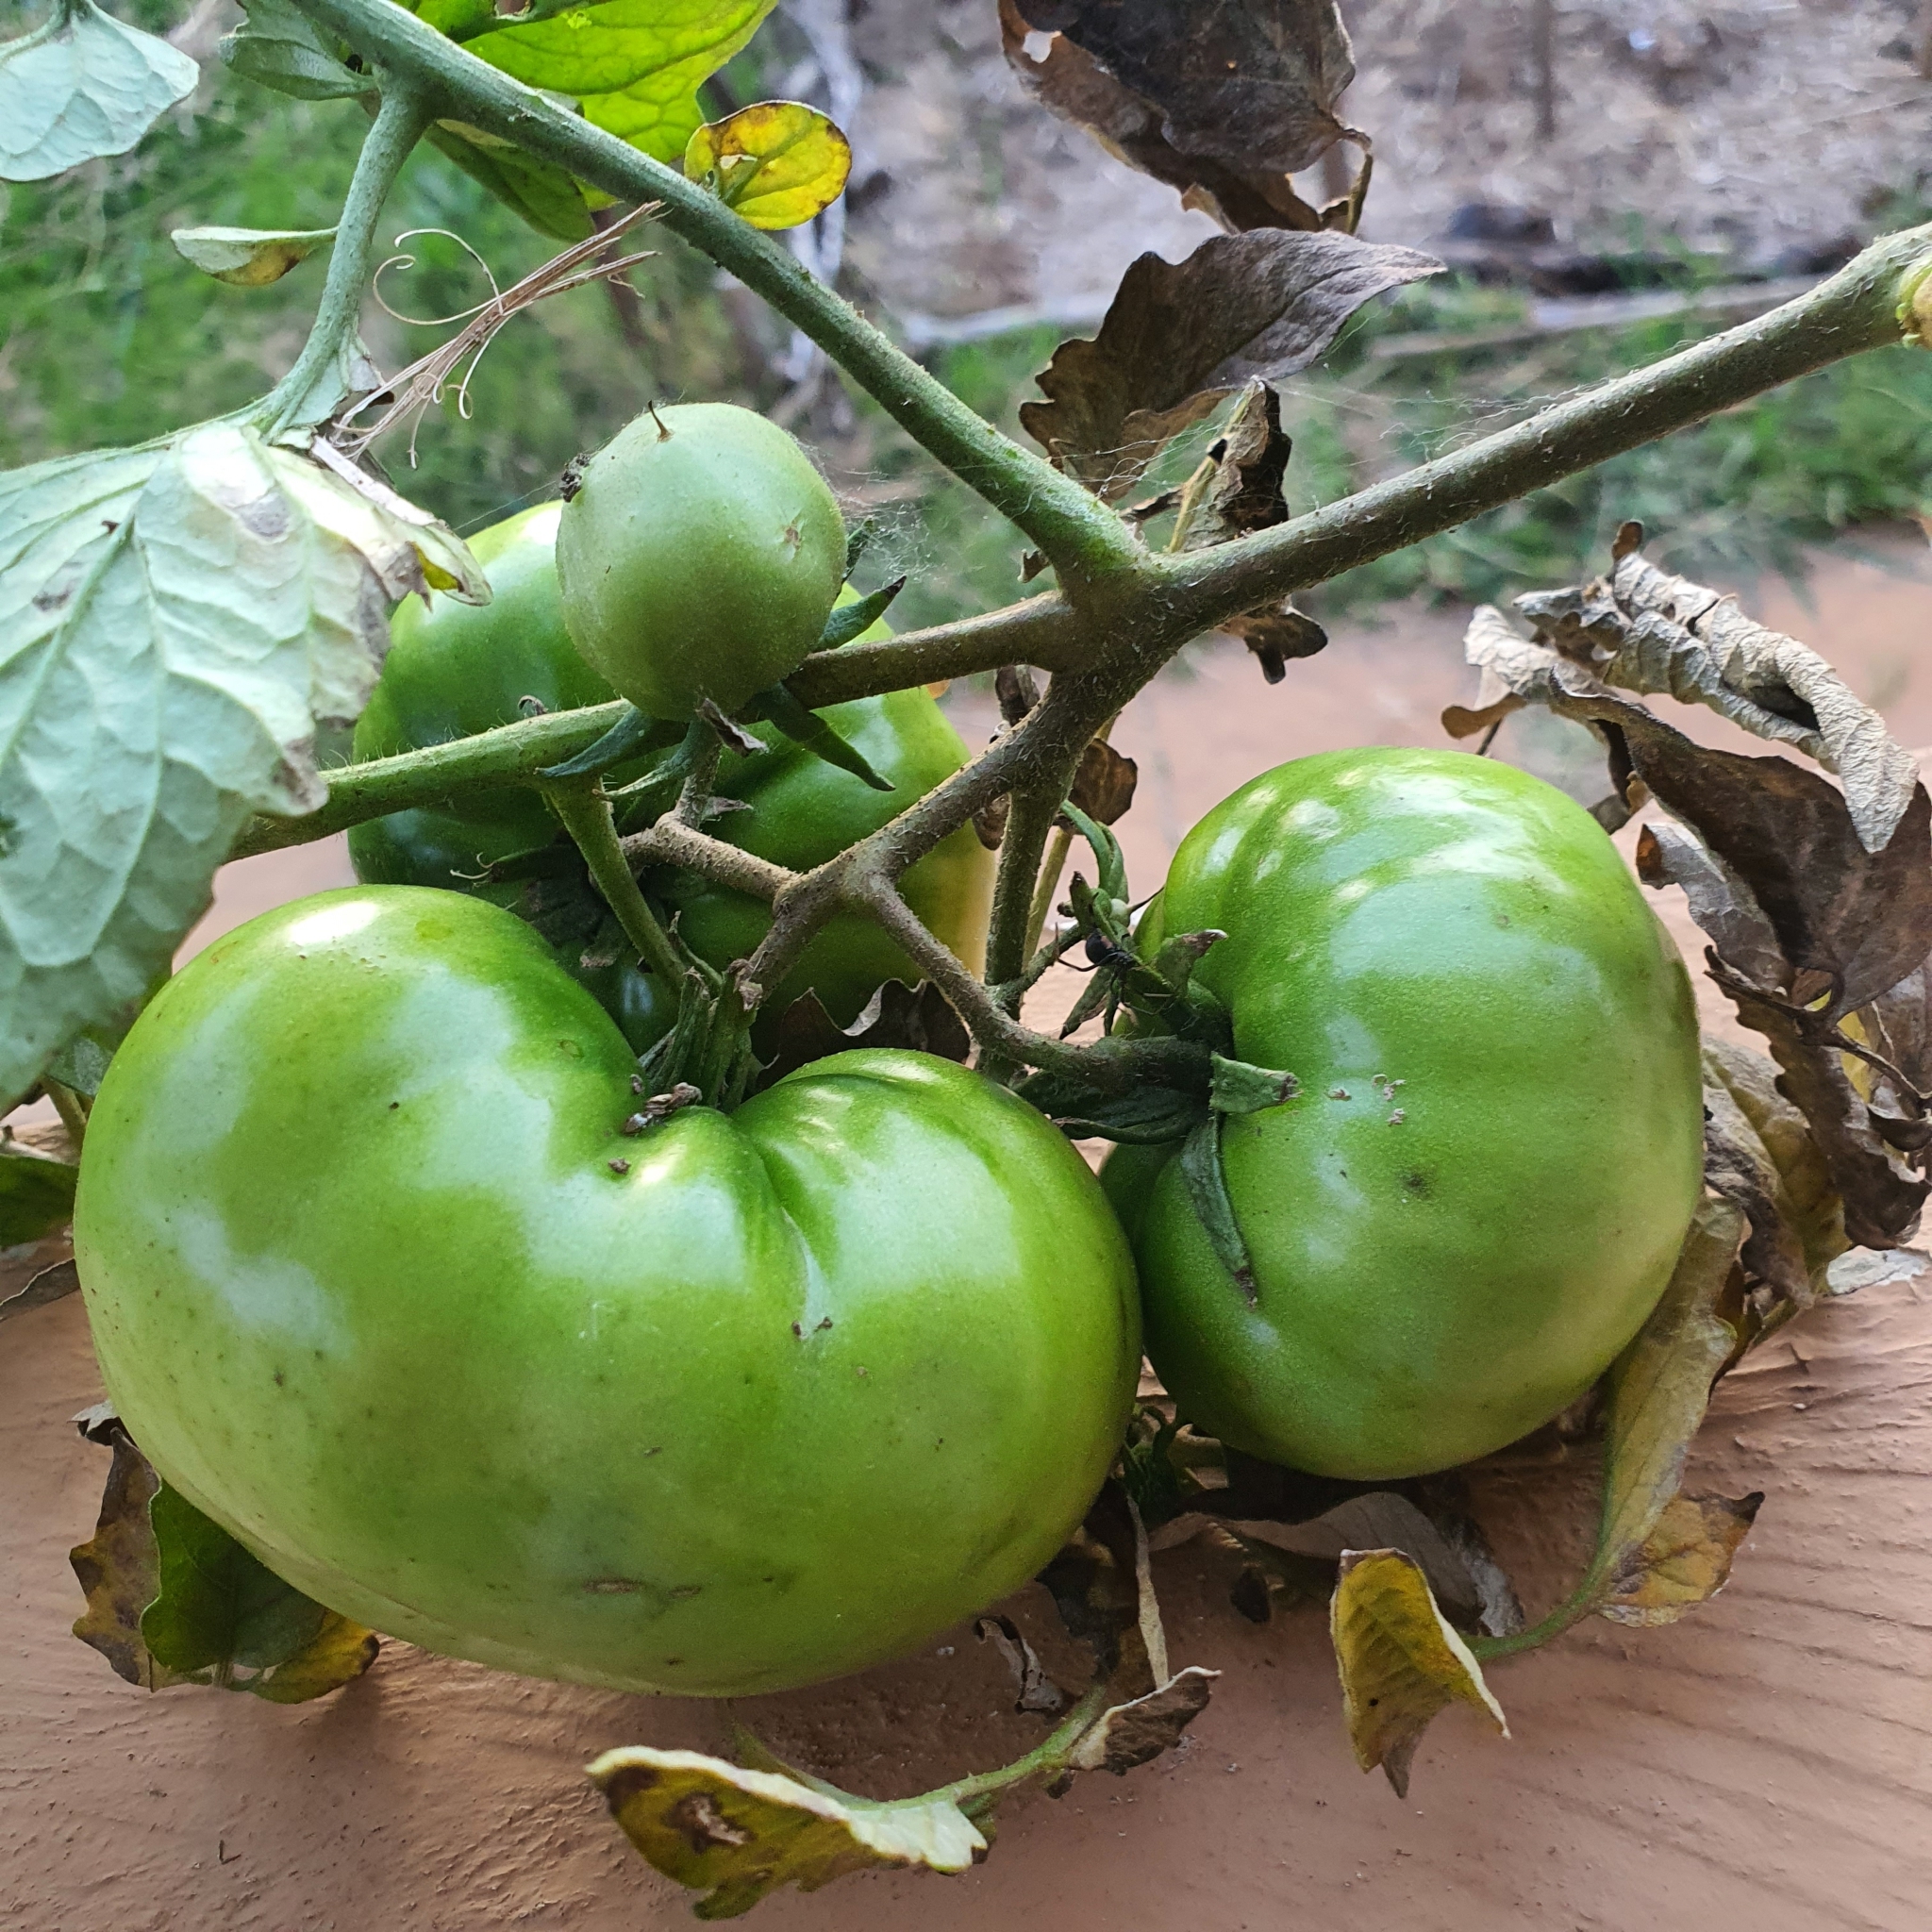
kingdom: Animalia
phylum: Arthropoda
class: Arachnida
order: Araneae
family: Theridiidae
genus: Latrodectus
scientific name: Latrodectus hasselti
